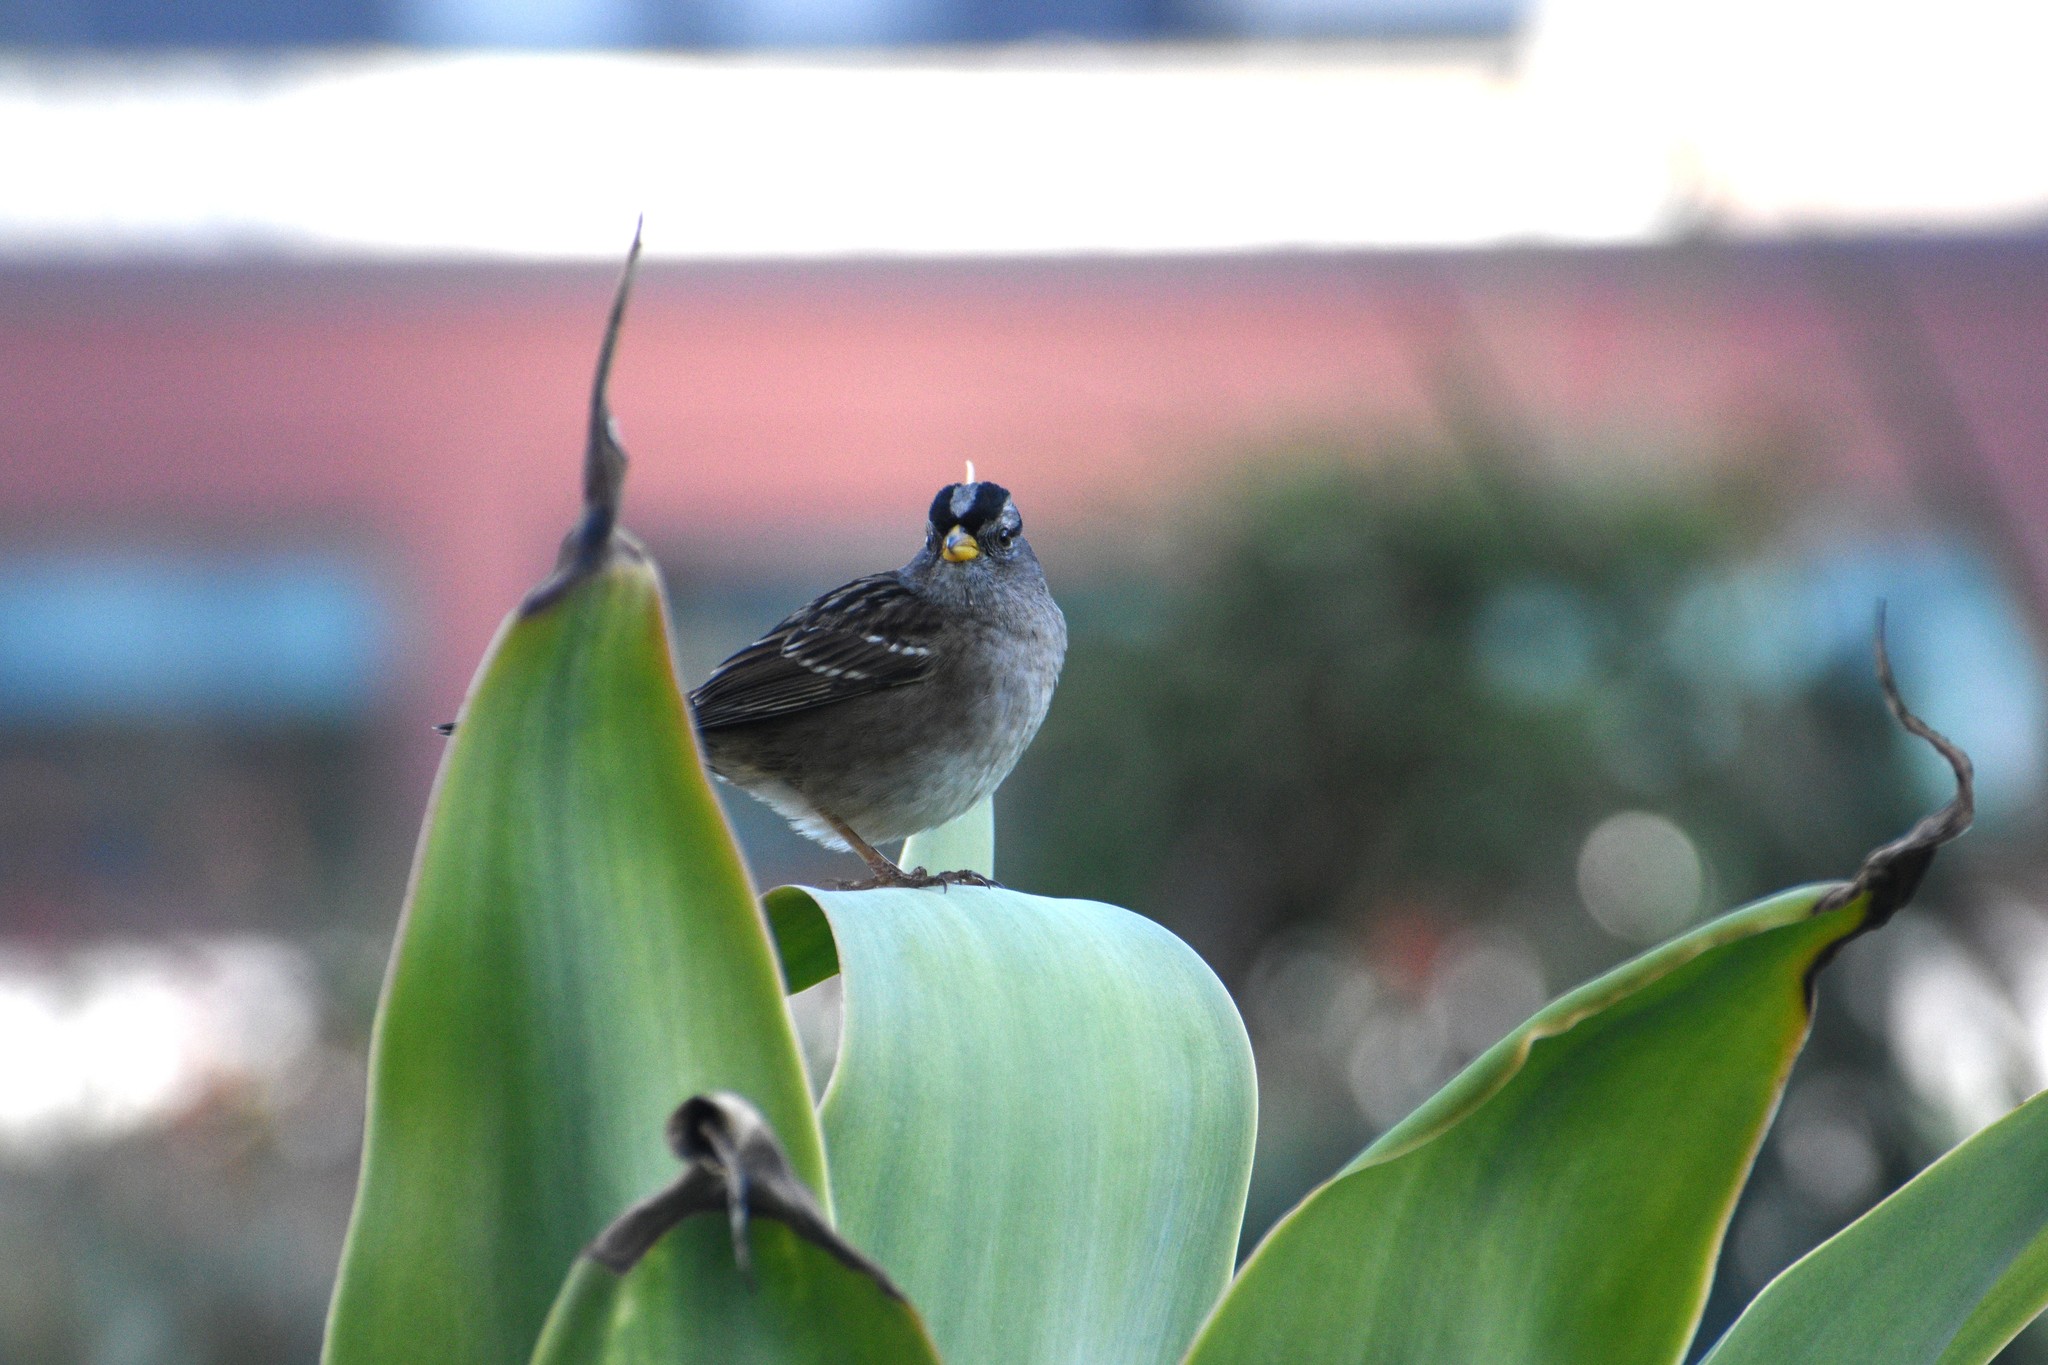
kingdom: Animalia
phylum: Chordata
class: Aves
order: Passeriformes
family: Passerellidae
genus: Zonotrichia
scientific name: Zonotrichia leucophrys
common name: White-crowned sparrow
